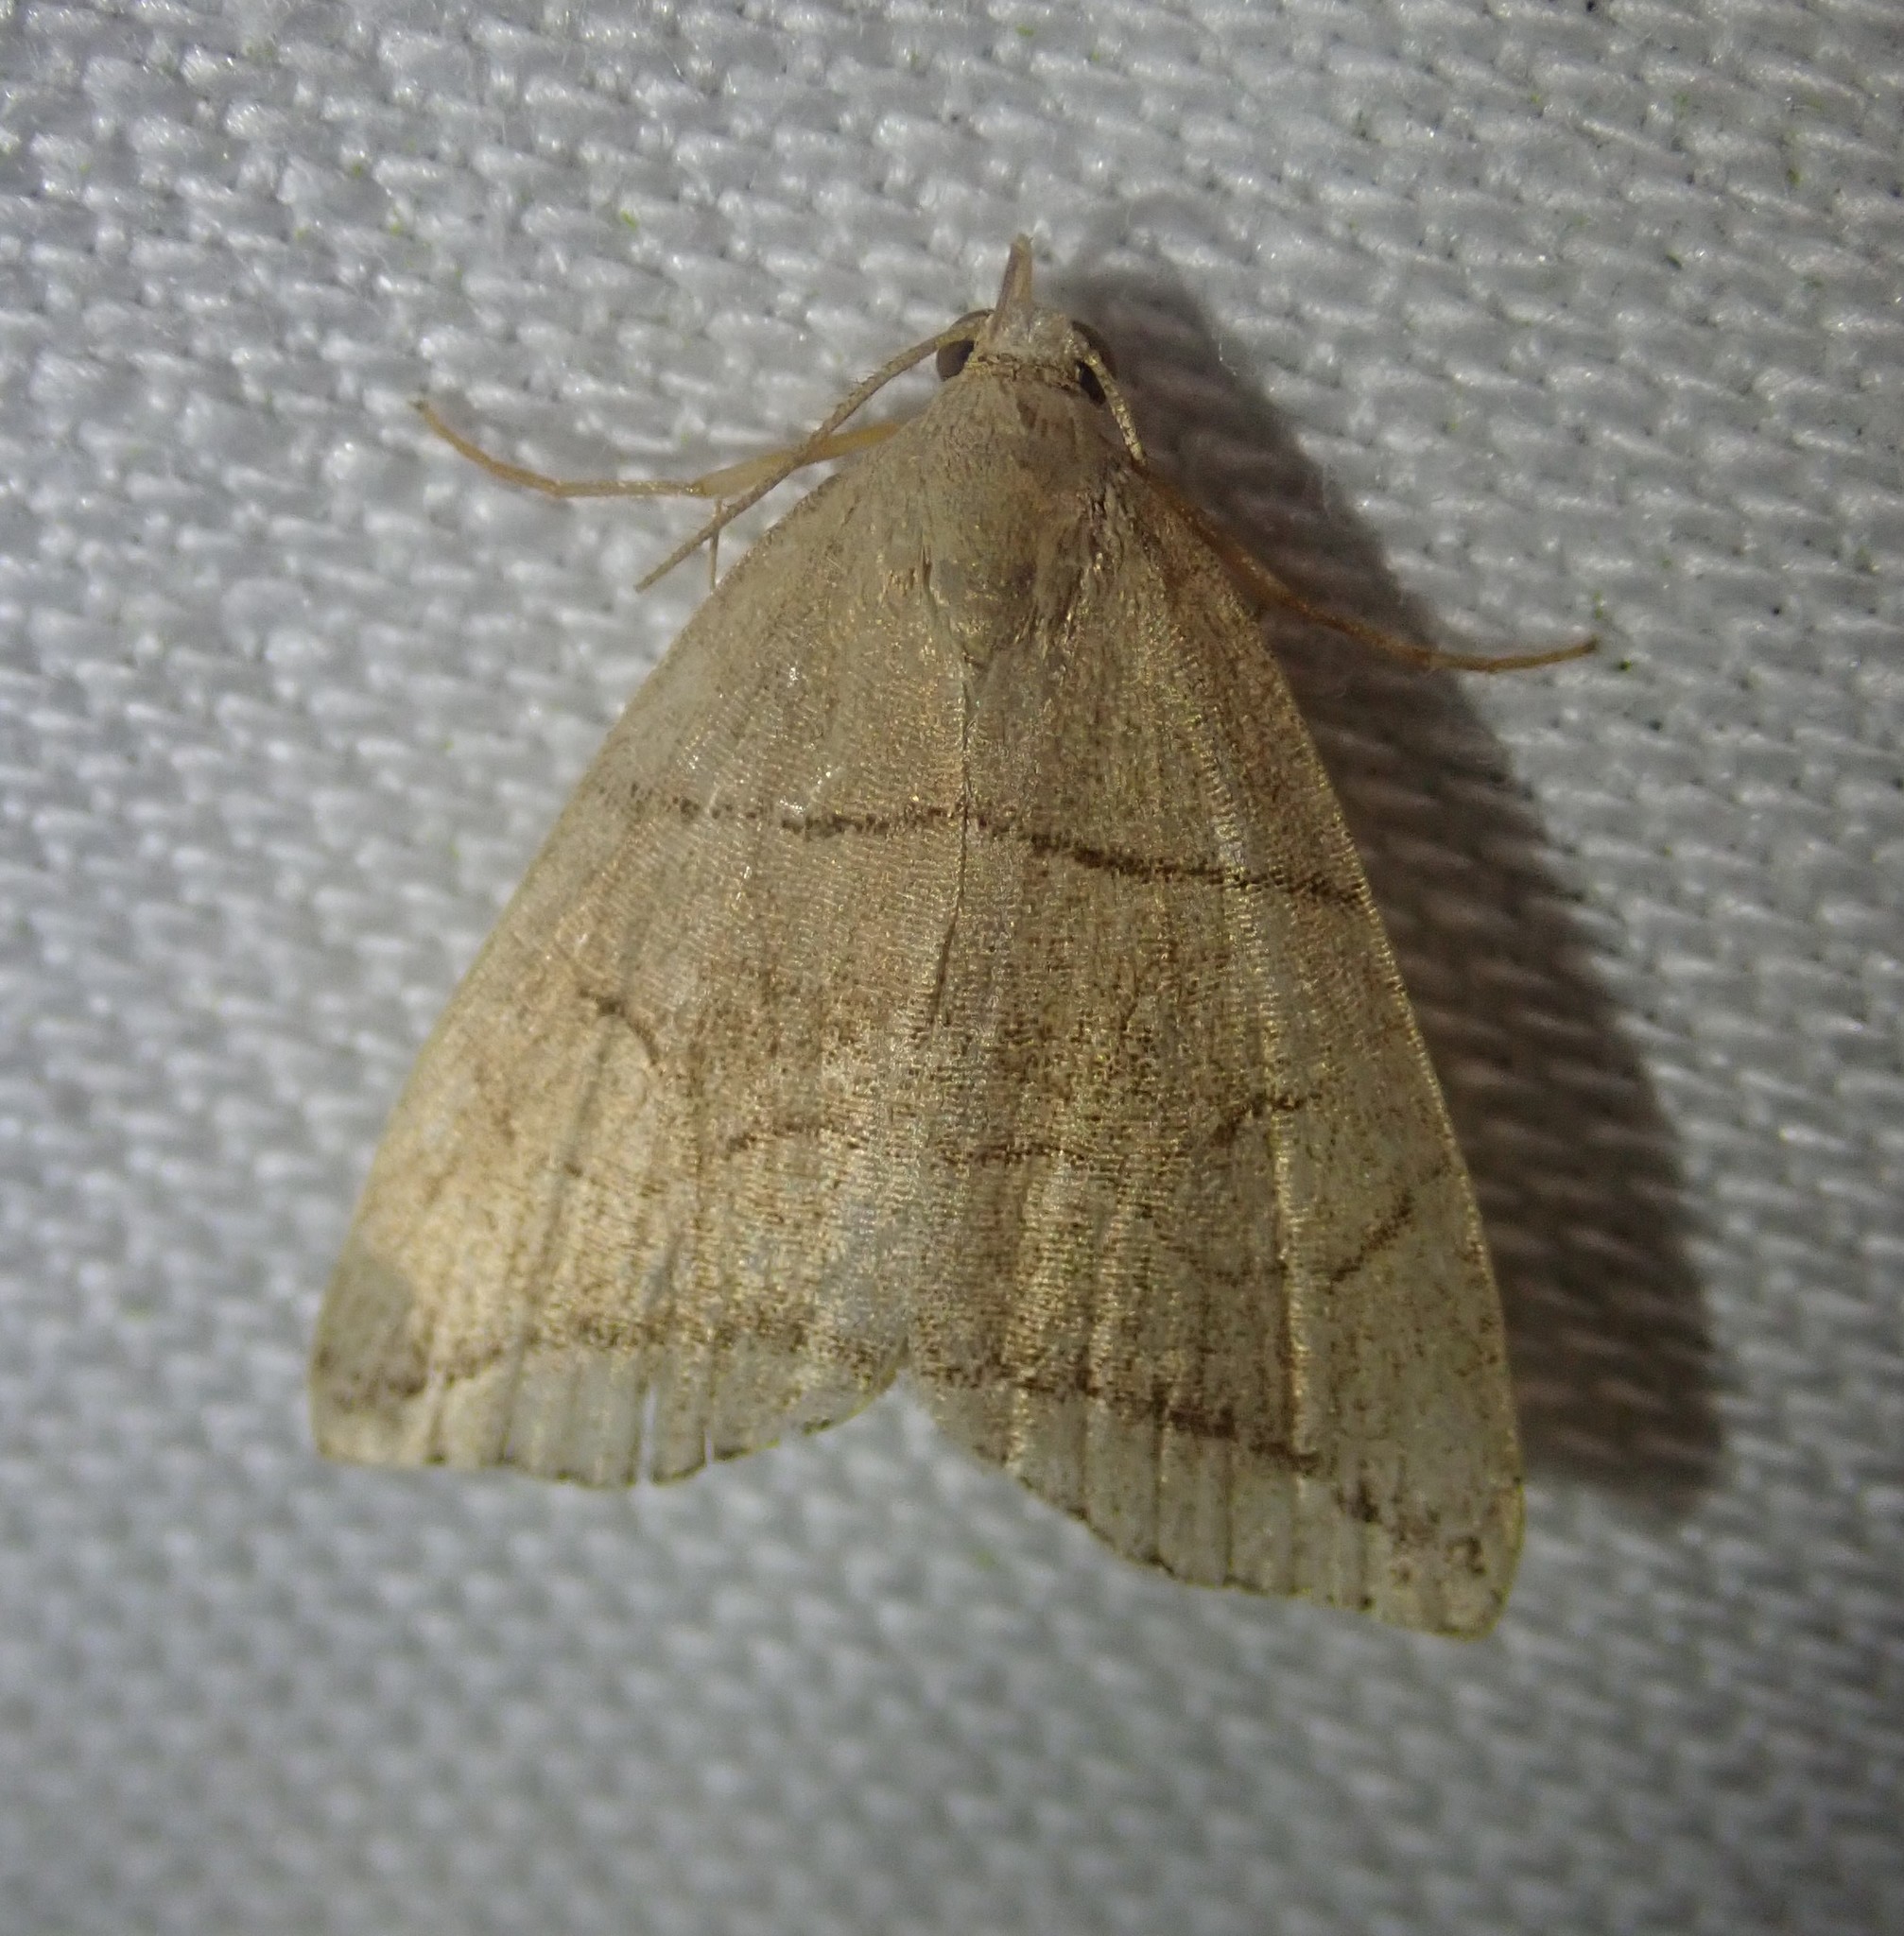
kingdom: Animalia
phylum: Arthropoda
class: Insecta
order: Lepidoptera
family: Erebidae
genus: Herminia
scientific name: Herminia grisealis
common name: Small fan-foot
